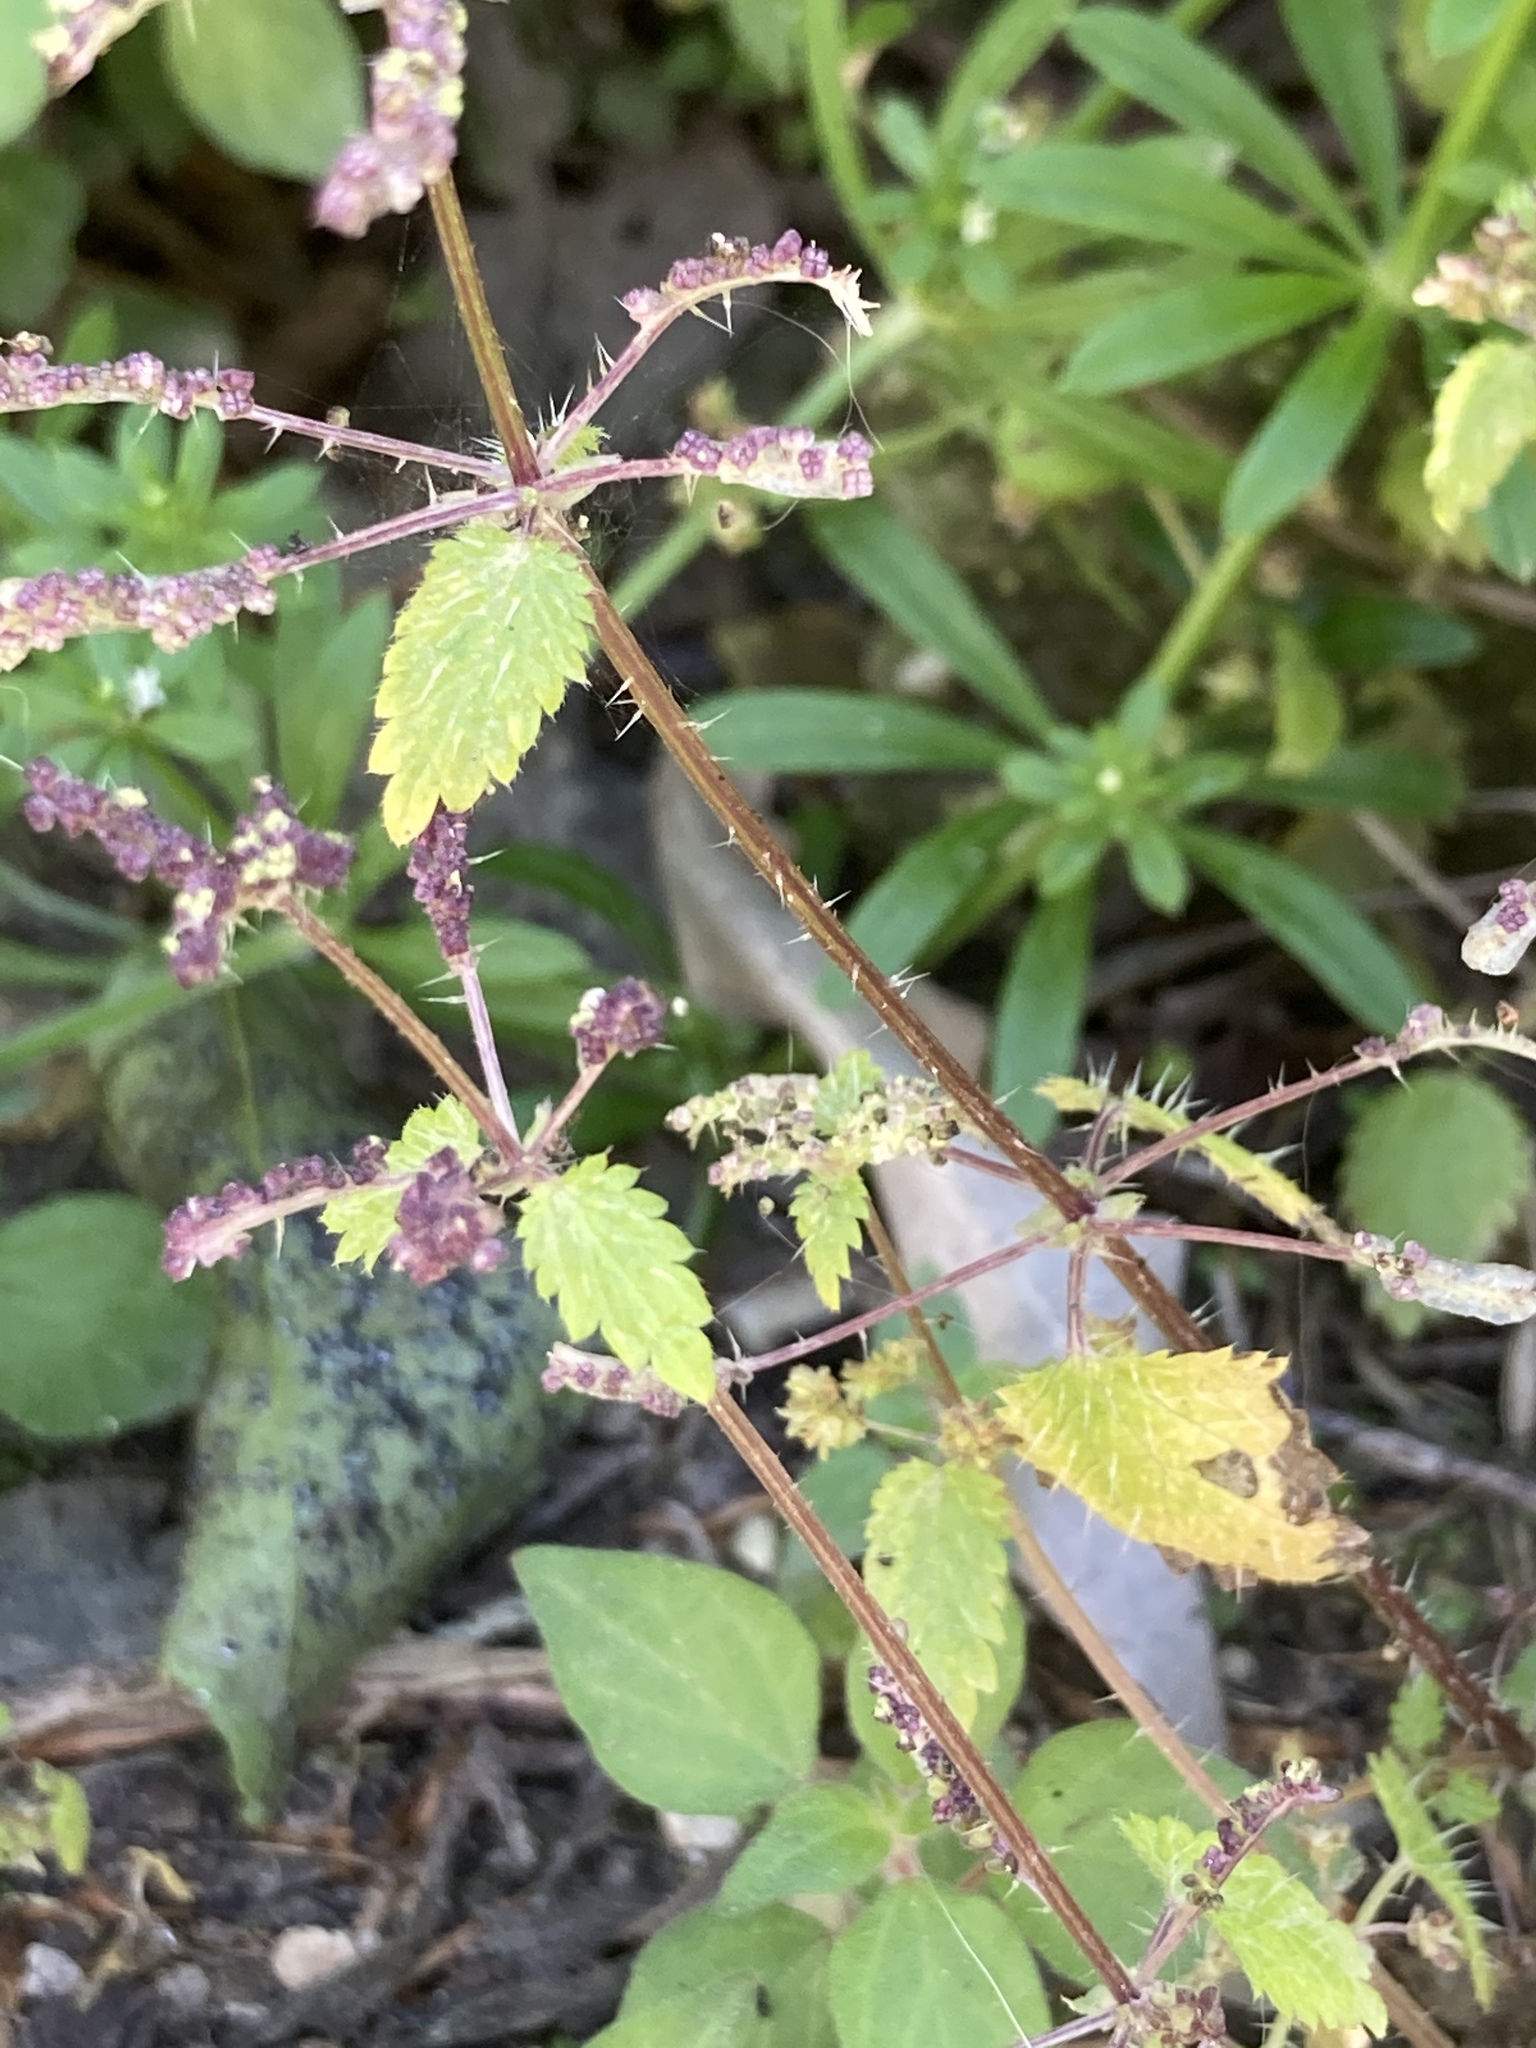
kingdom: Plantae
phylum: Tracheophyta
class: Magnoliopsida
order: Rosales
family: Urticaceae
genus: Urtica
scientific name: Urtica membranacea
